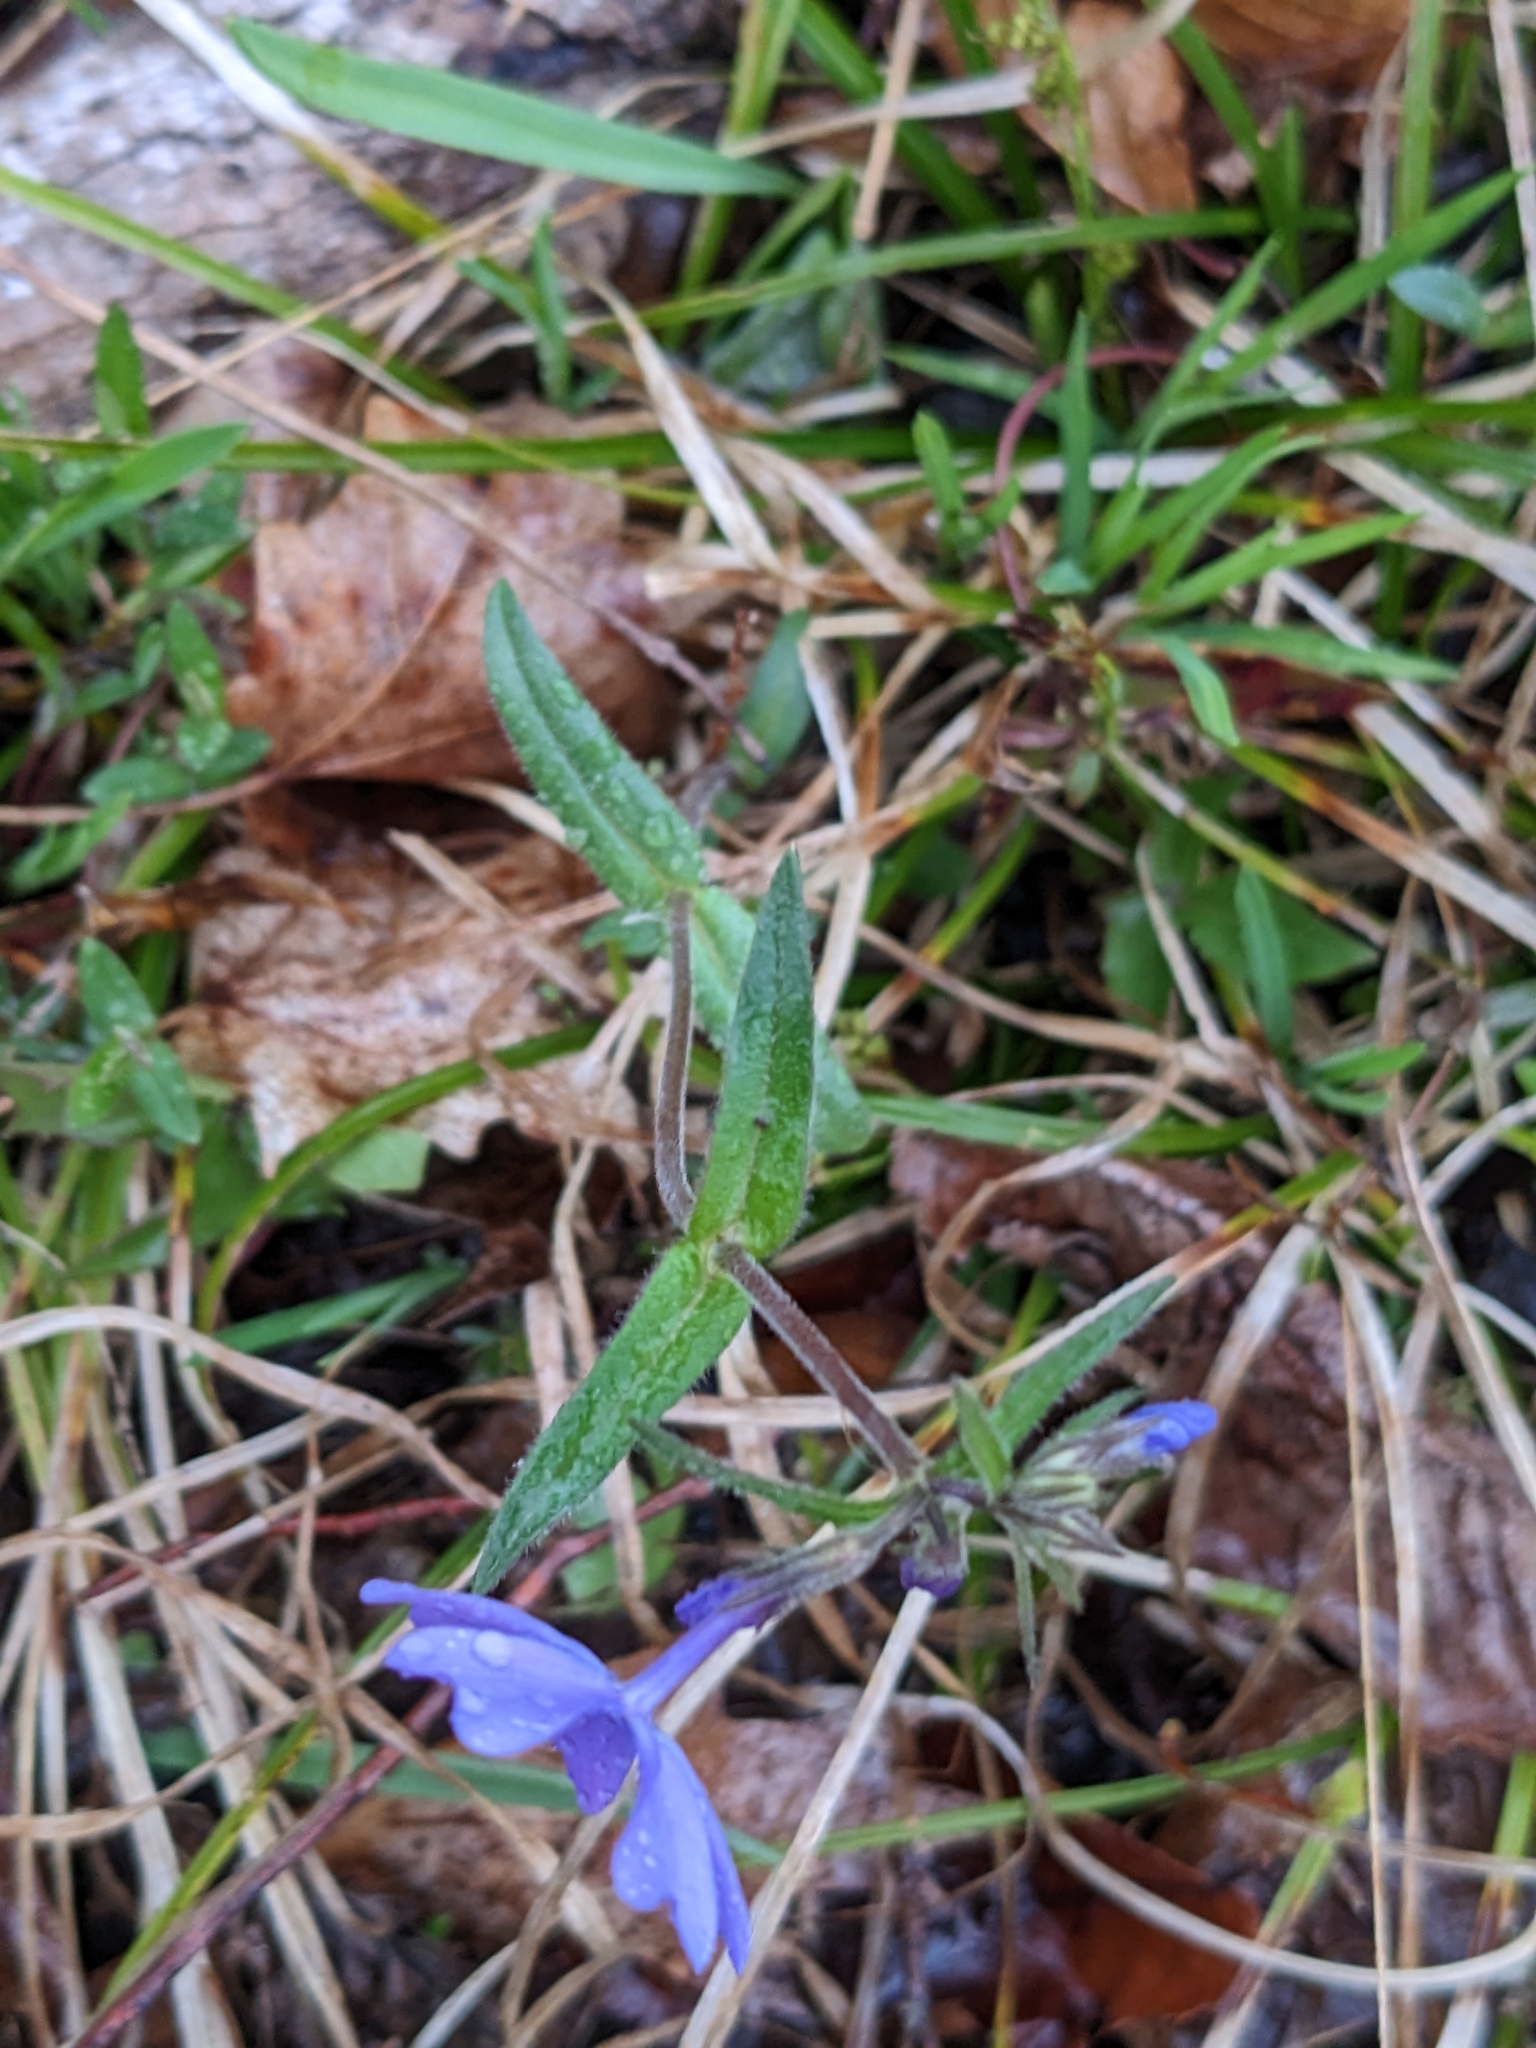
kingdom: Plantae
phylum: Tracheophyta
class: Magnoliopsida
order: Ericales
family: Polemoniaceae
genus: Phlox
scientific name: Phlox divaricata
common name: Blue phlox
